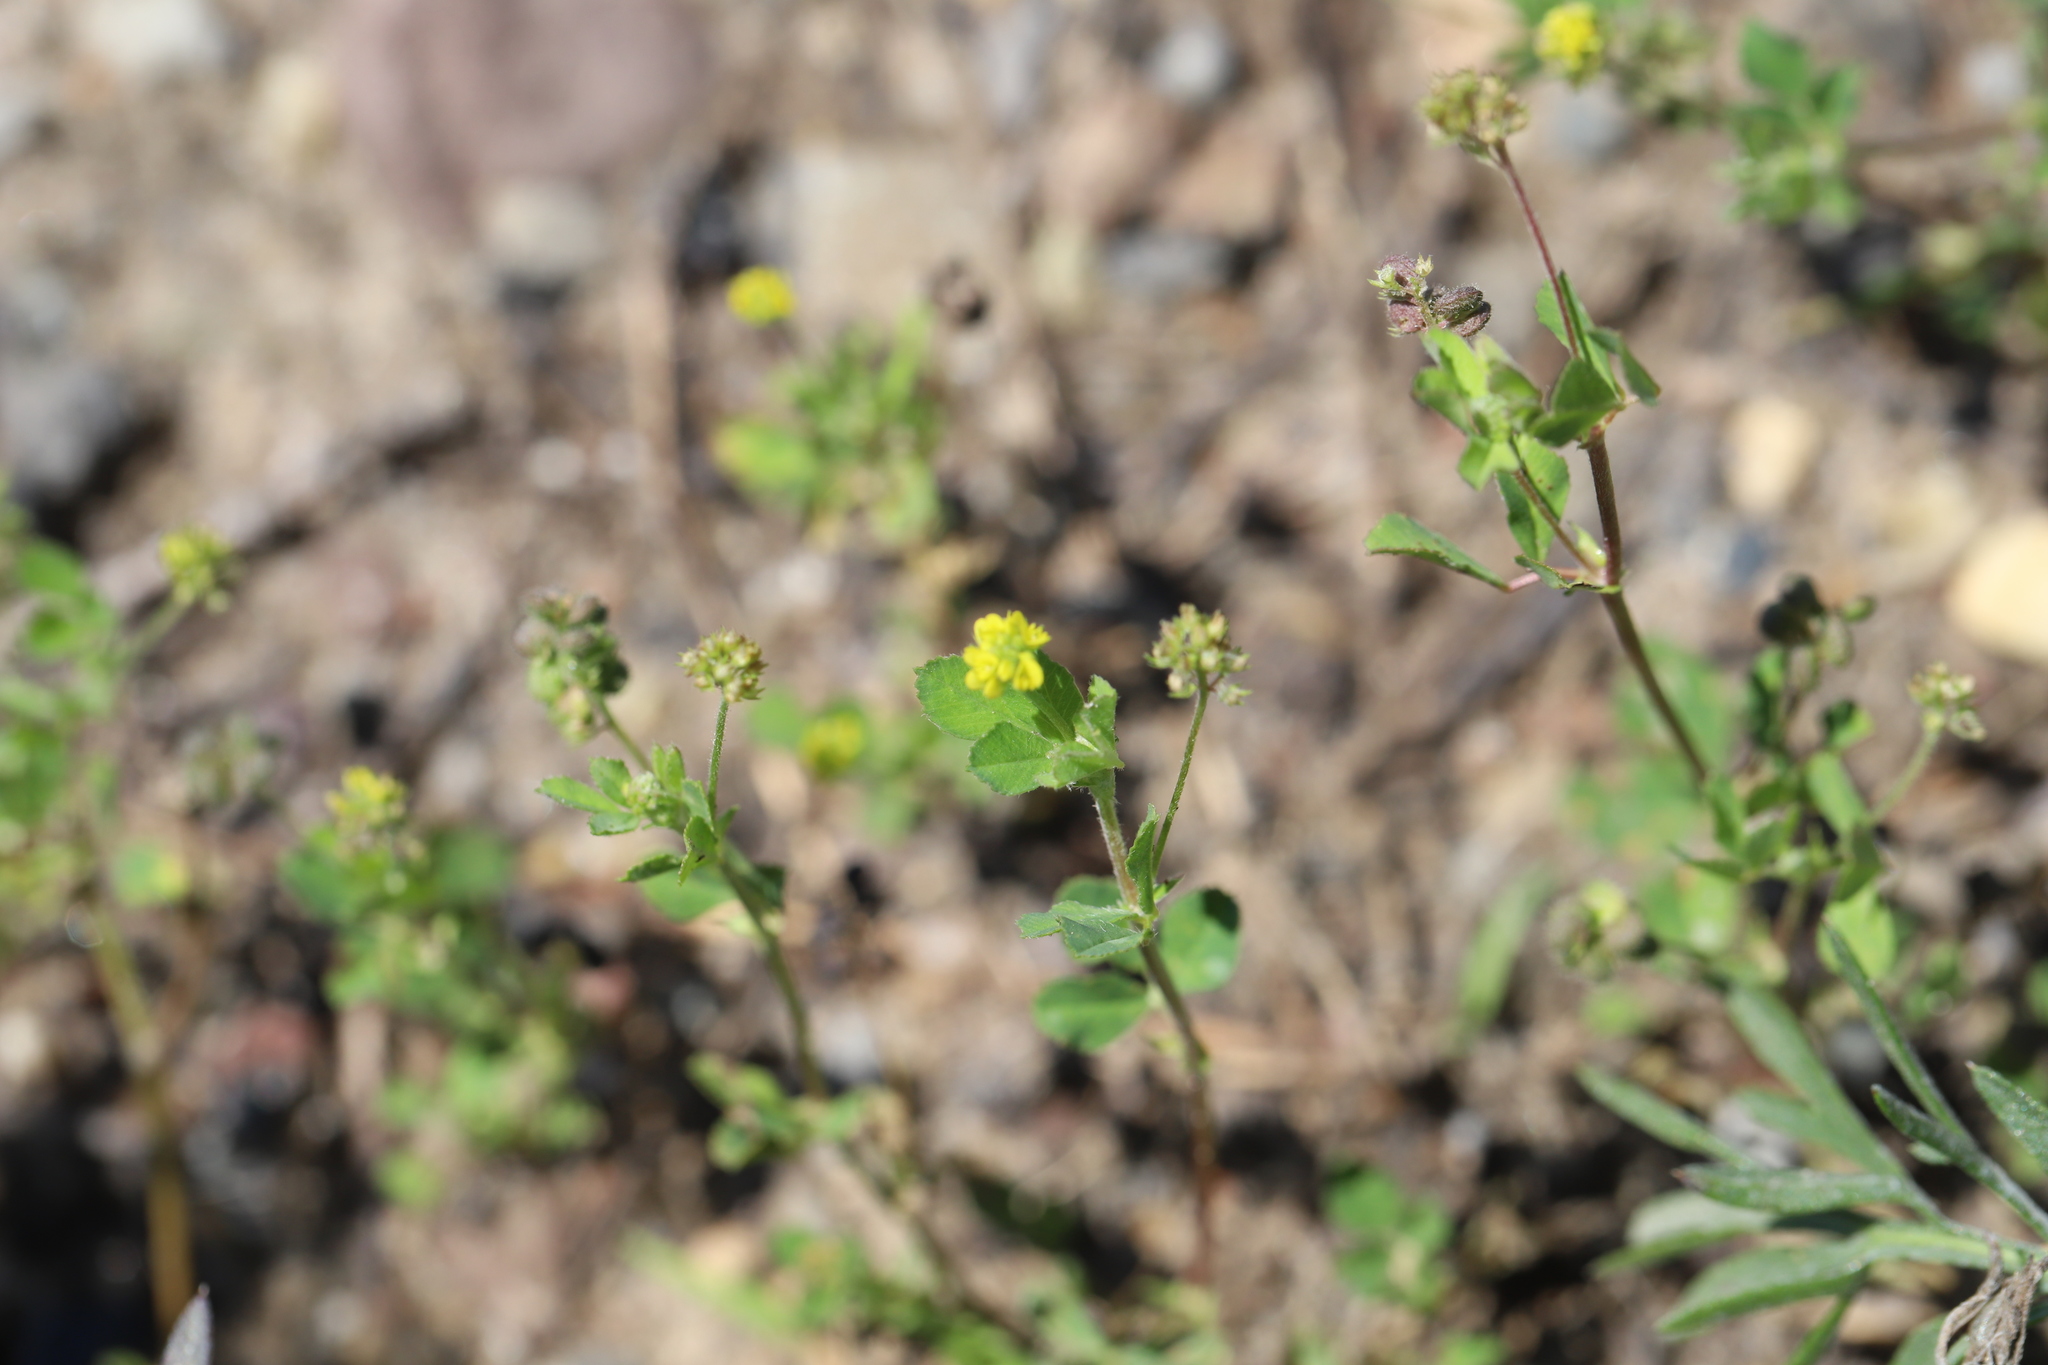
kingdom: Plantae
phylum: Tracheophyta
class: Magnoliopsida
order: Fabales
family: Fabaceae
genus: Medicago
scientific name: Medicago lupulina
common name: Black medick
